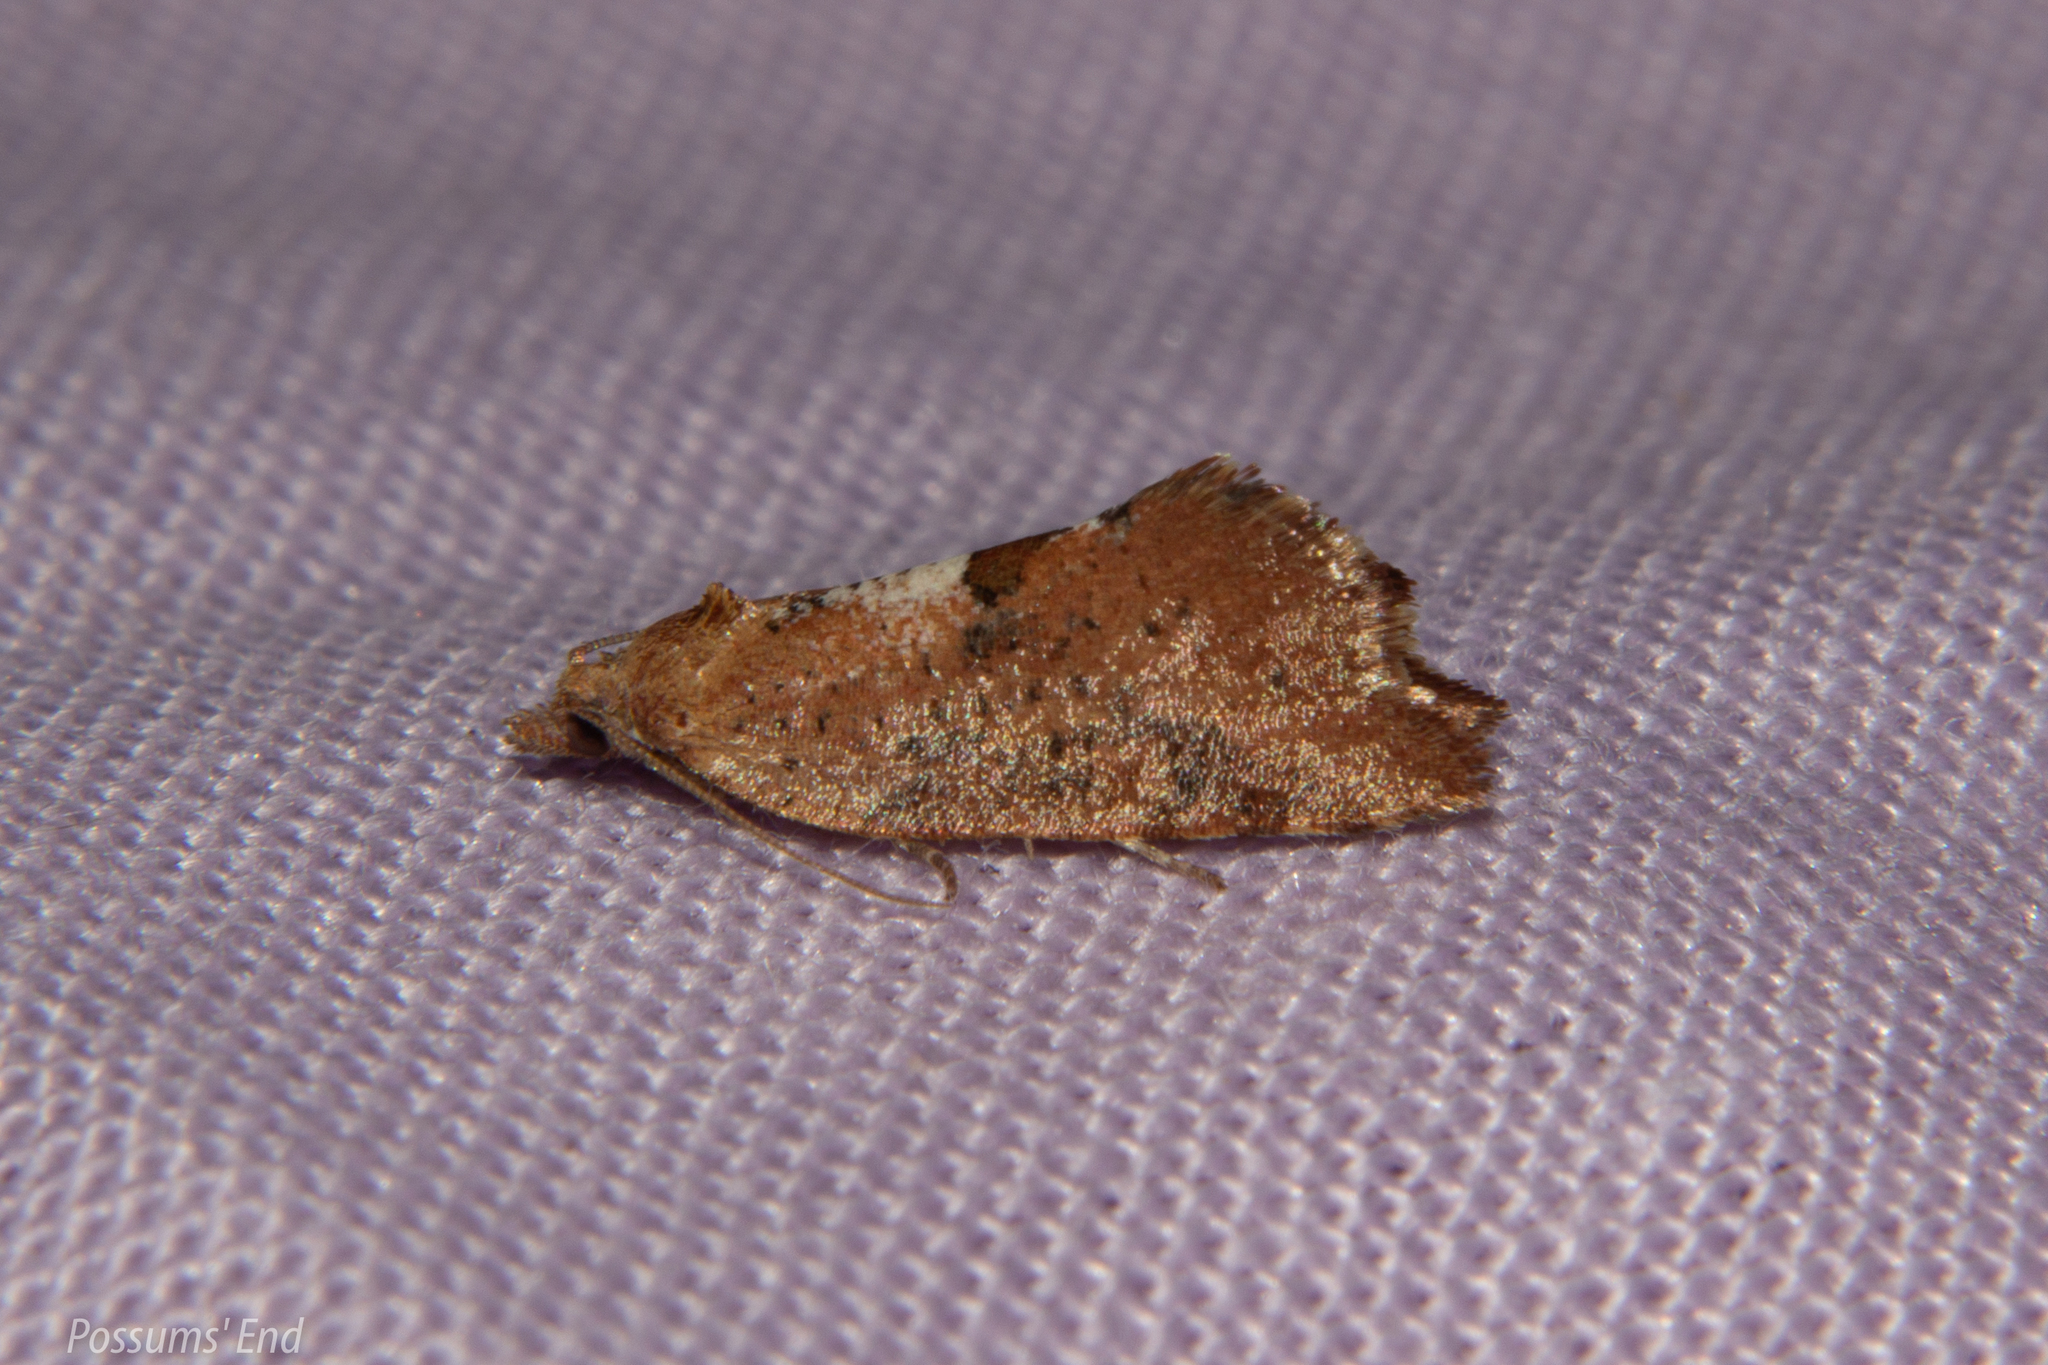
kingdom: Animalia
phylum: Arthropoda
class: Insecta
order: Lepidoptera
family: Tortricidae
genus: Pyrgotis
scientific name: Pyrgotis pyramidias
